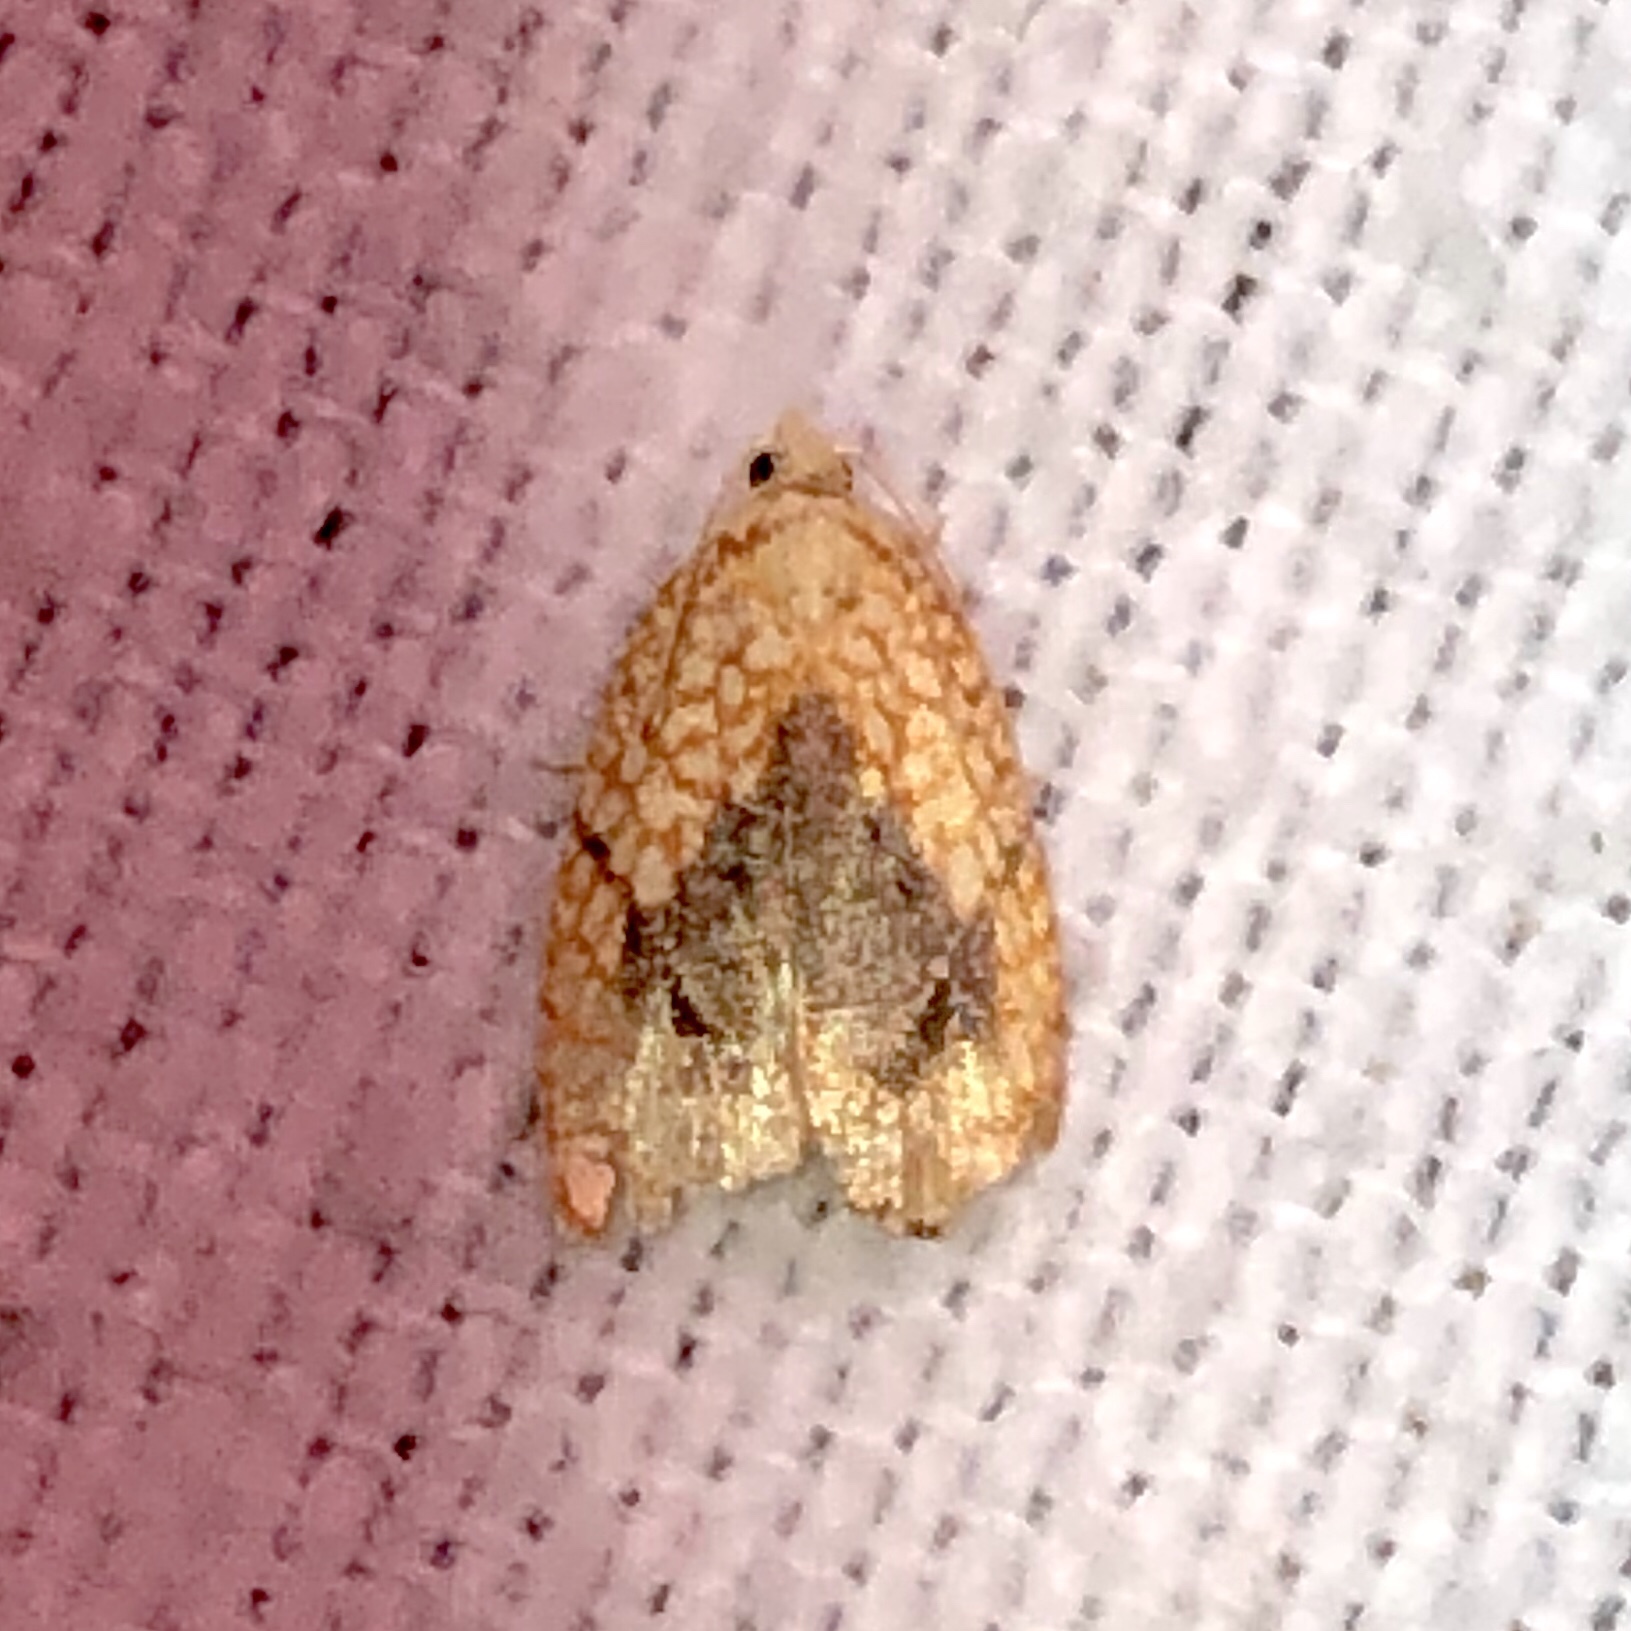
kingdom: Animalia
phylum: Arthropoda
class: Insecta
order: Lepidoptera
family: Tortricidae
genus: Acleris
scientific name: Acleris forsskaleana
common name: Maple button
